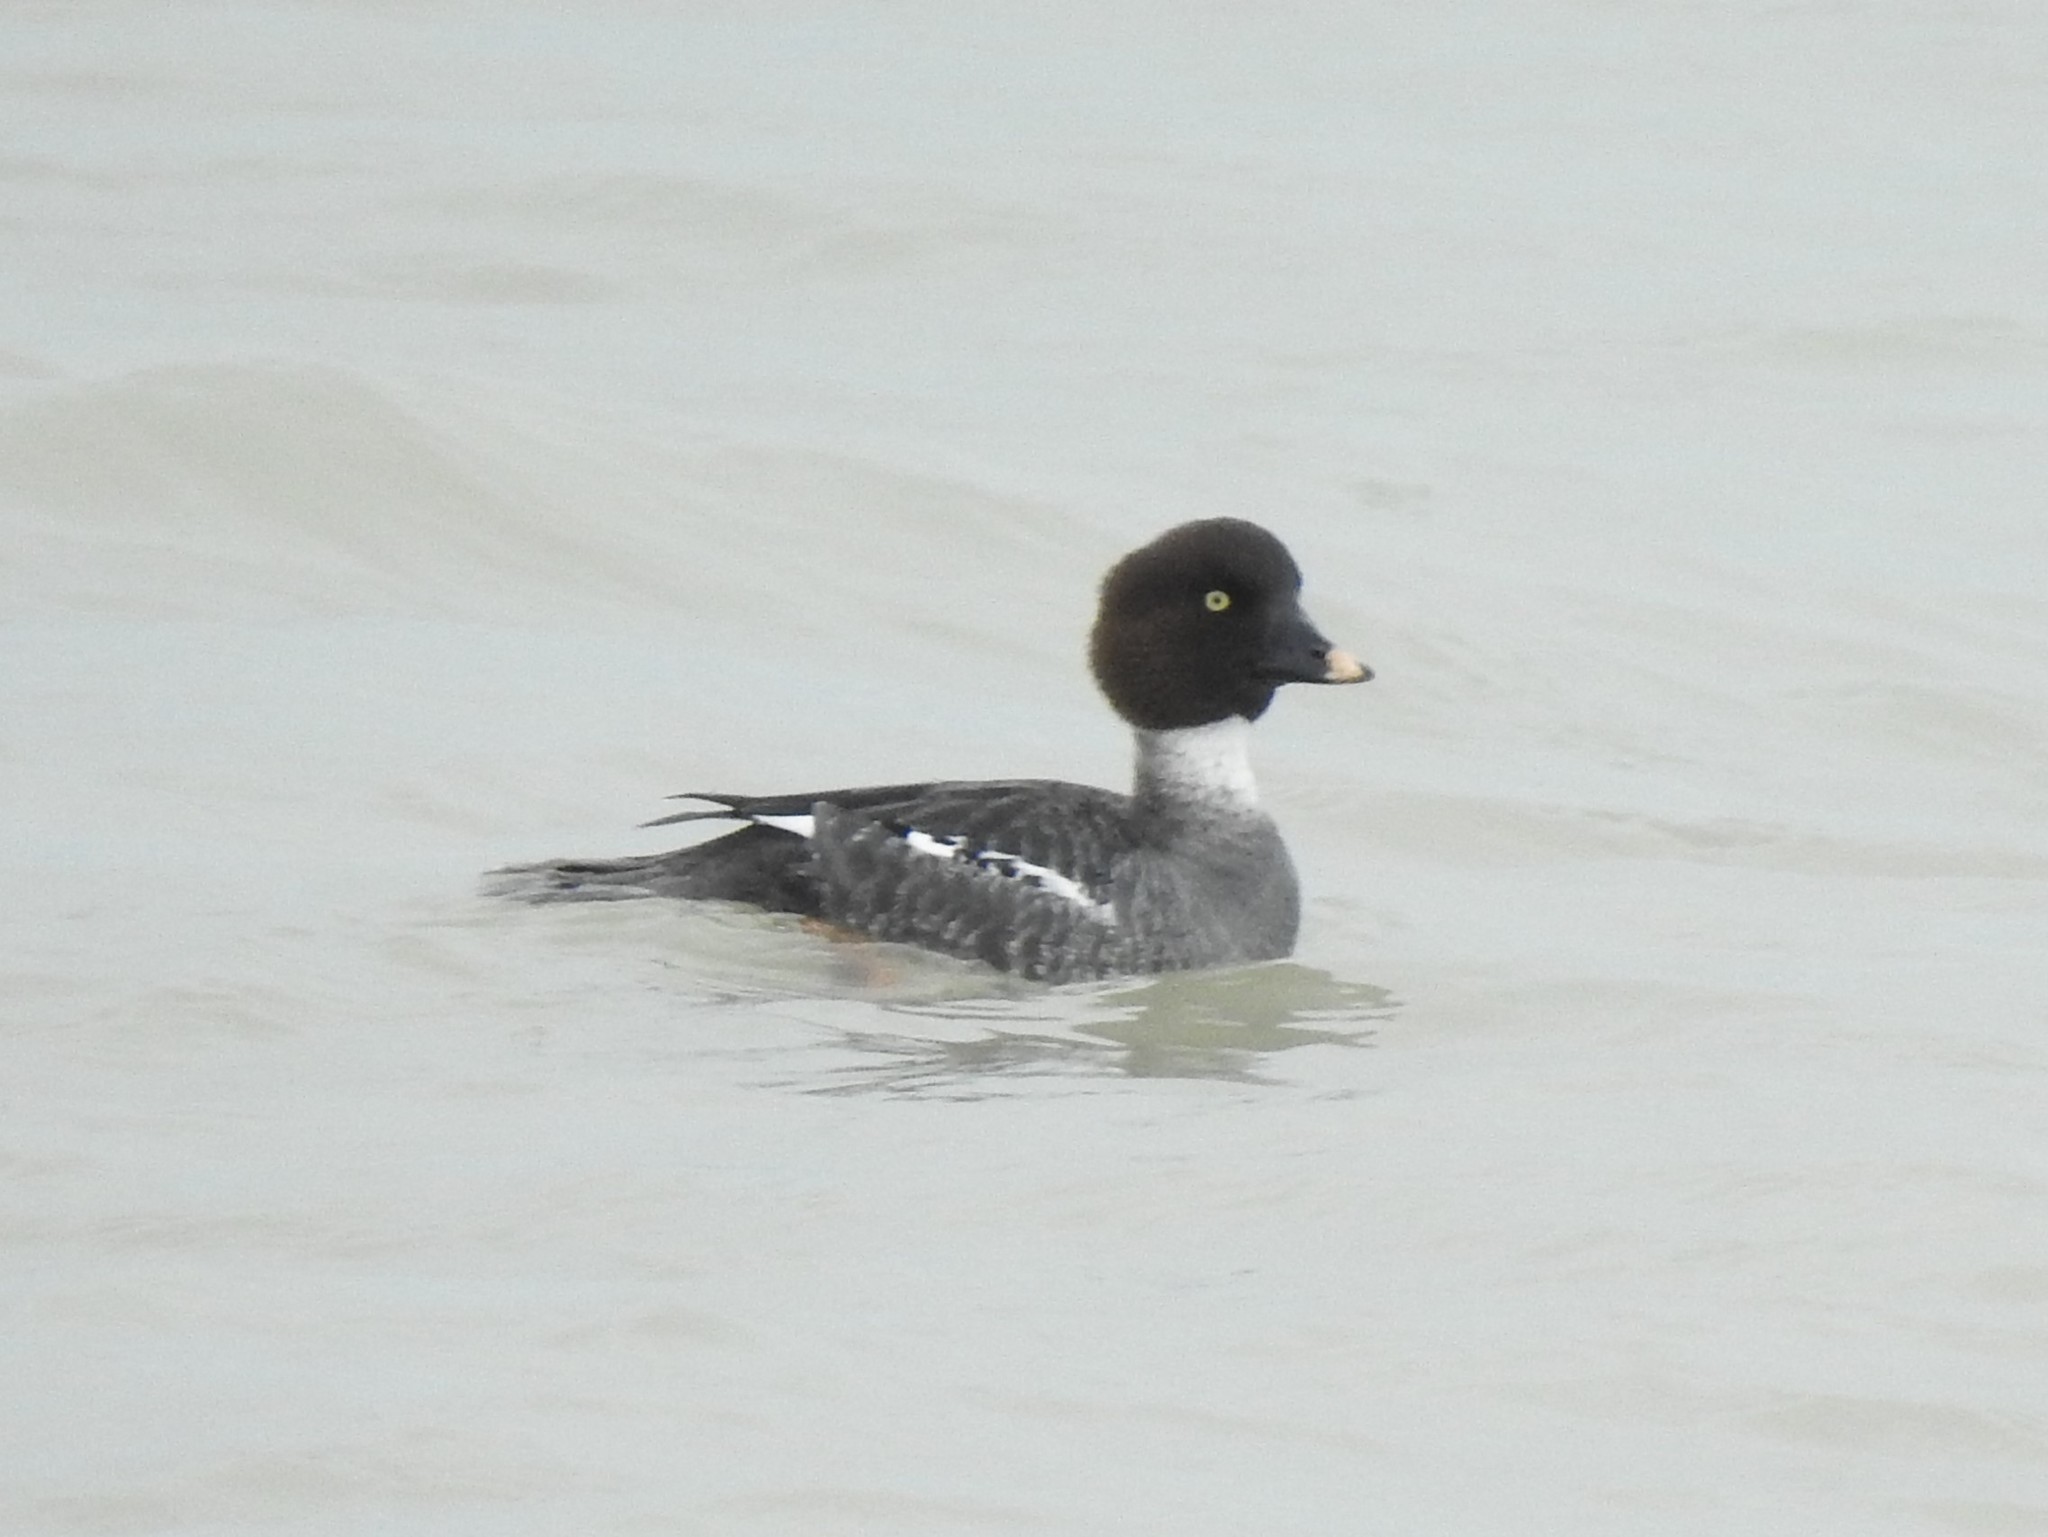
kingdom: Animalia
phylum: Chordata
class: Aves
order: Anseriformes
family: Anatidae
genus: Bucephala
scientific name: Bucephala clangula
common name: Common goldeneye
